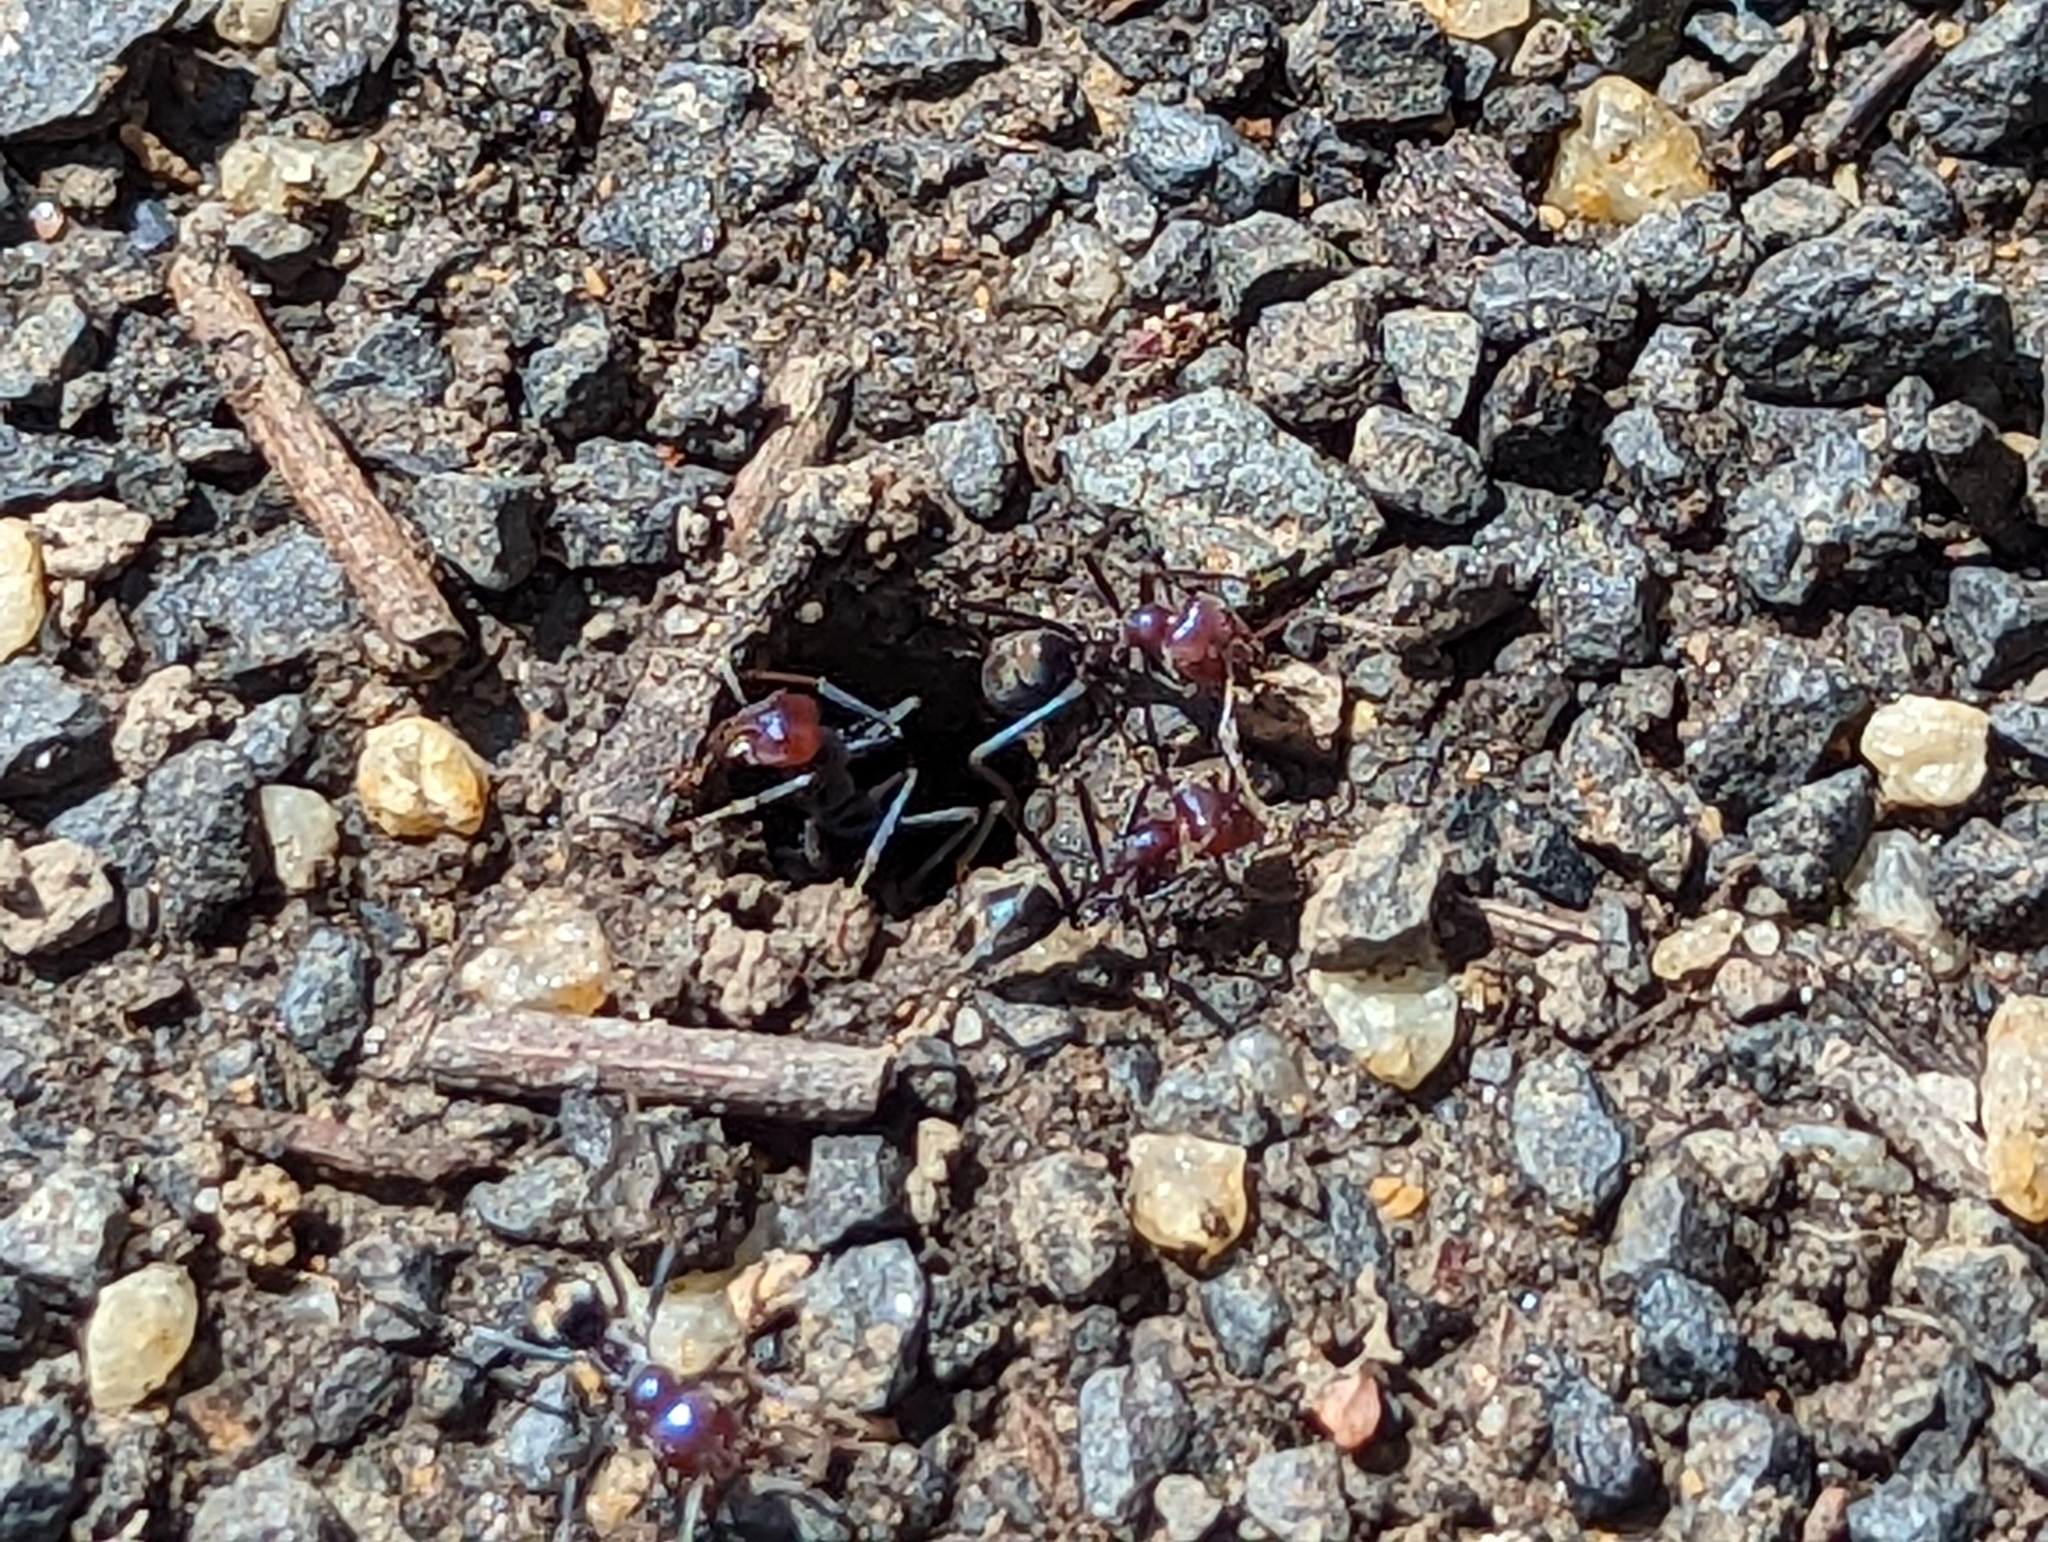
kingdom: Animalia
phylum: Arthropoda
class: Insecta
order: Hymenoptera
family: Formicidae
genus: Iridomyrmex
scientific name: Iridomyrmex purpureus
